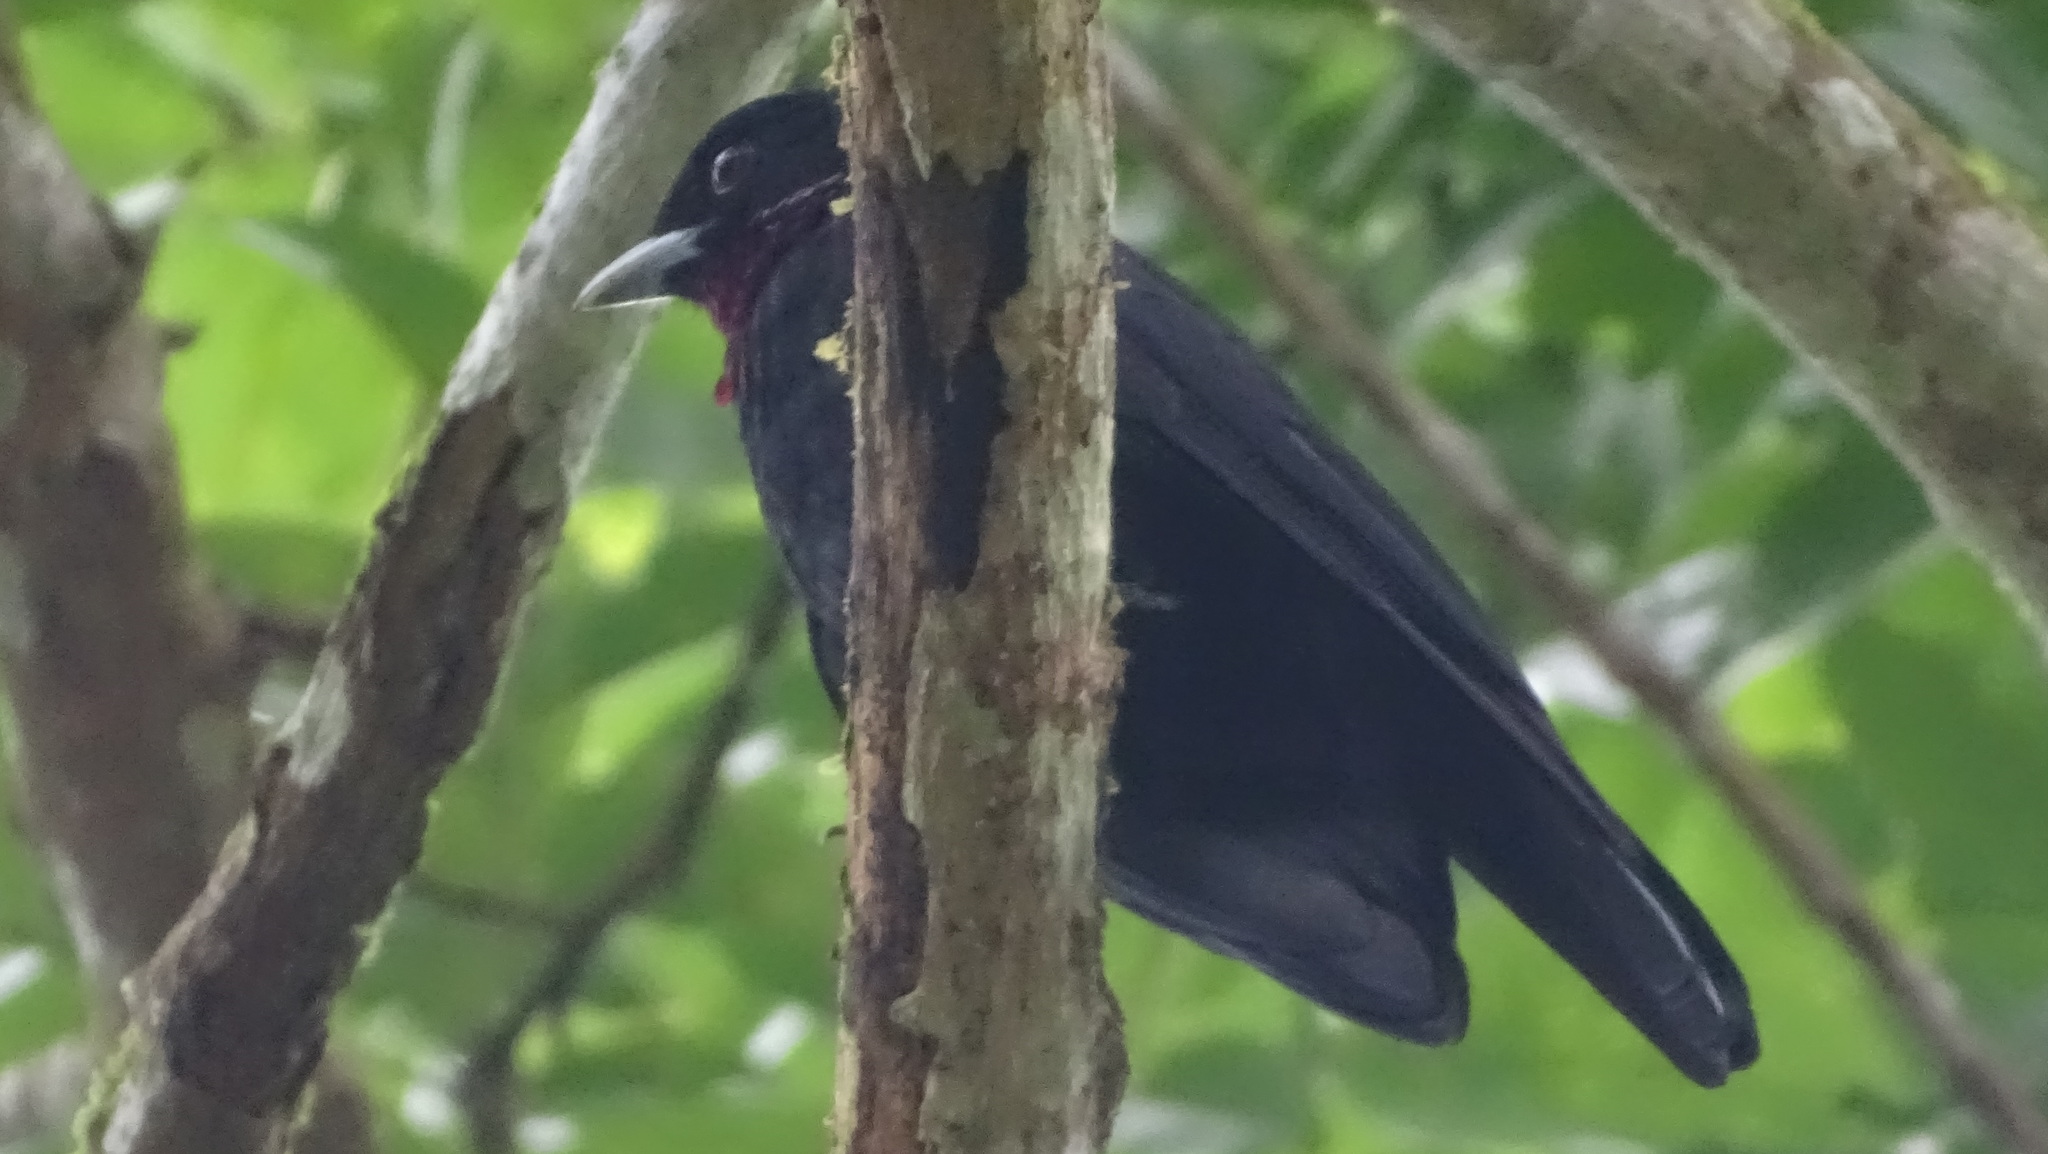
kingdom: Animalia
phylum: Chordata
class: Aves
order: Passeriformes
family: Cotingidae
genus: Querula
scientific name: Querula purpurata
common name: Purple-throated fruitcrow
